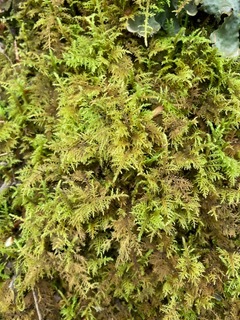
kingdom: Plantae
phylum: Bryophyta
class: Bryopsida
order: Hypnales
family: Thuidiaceae
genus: Thuidium
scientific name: Thuidium delicatulum
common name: Delicate fern moss
